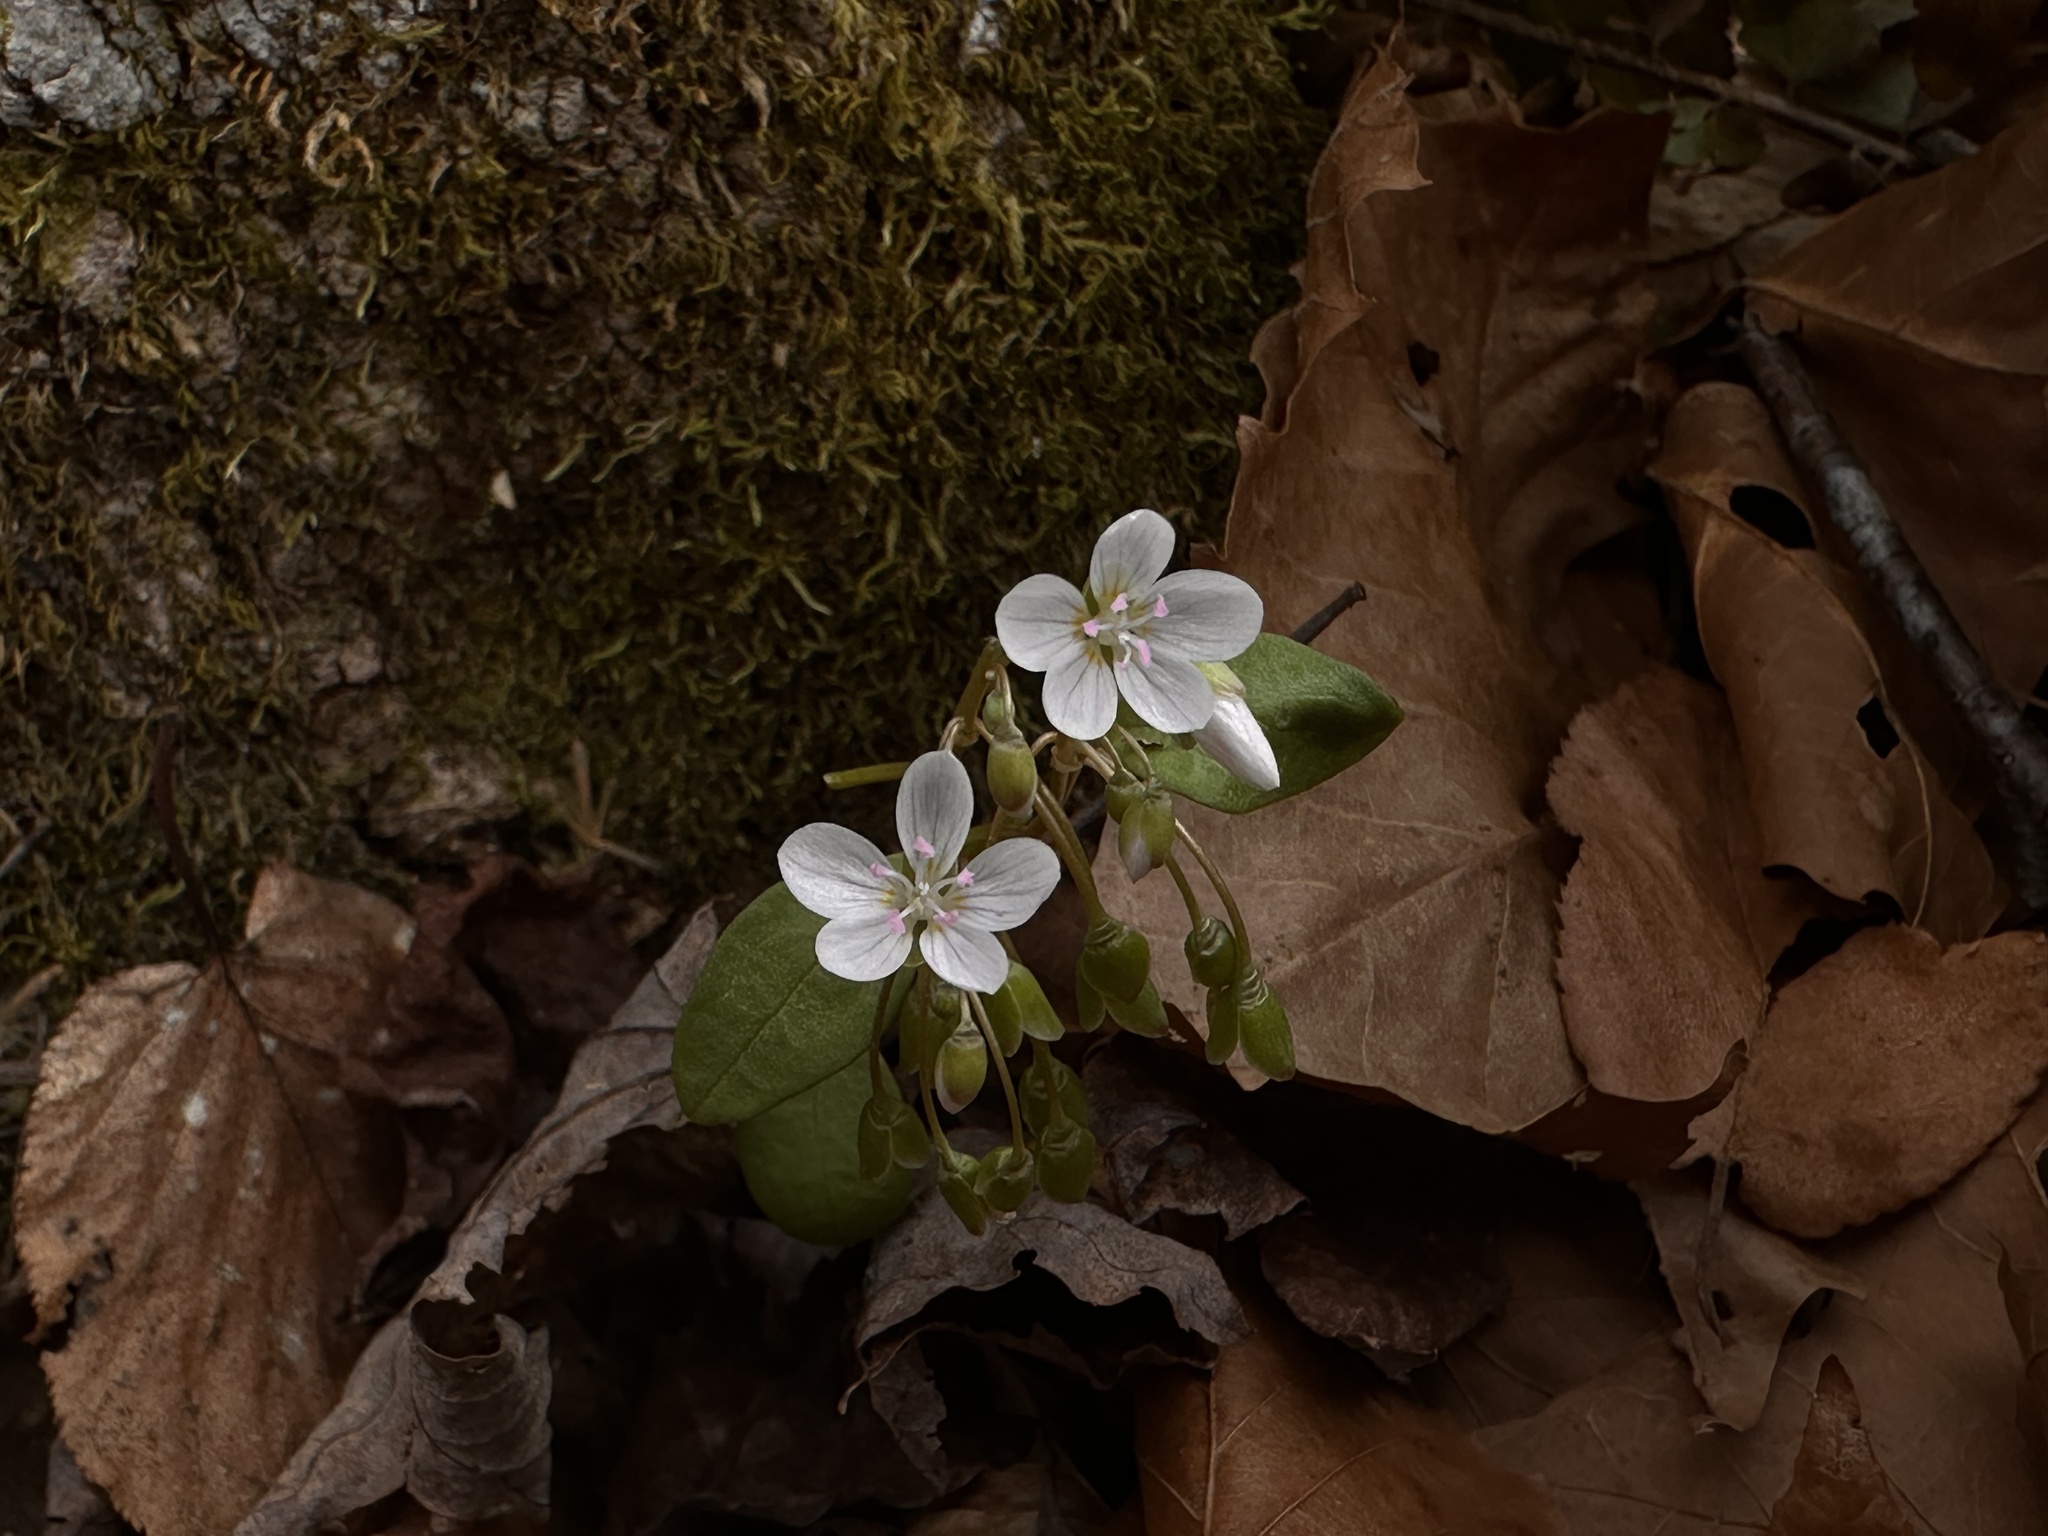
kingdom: Plantae
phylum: Tracheophyta
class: Magnoliopsida
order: Caryophyllales
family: Montiaceae
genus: Claytonia
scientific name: Claytonia caroliniana
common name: Carolina spring beauty
